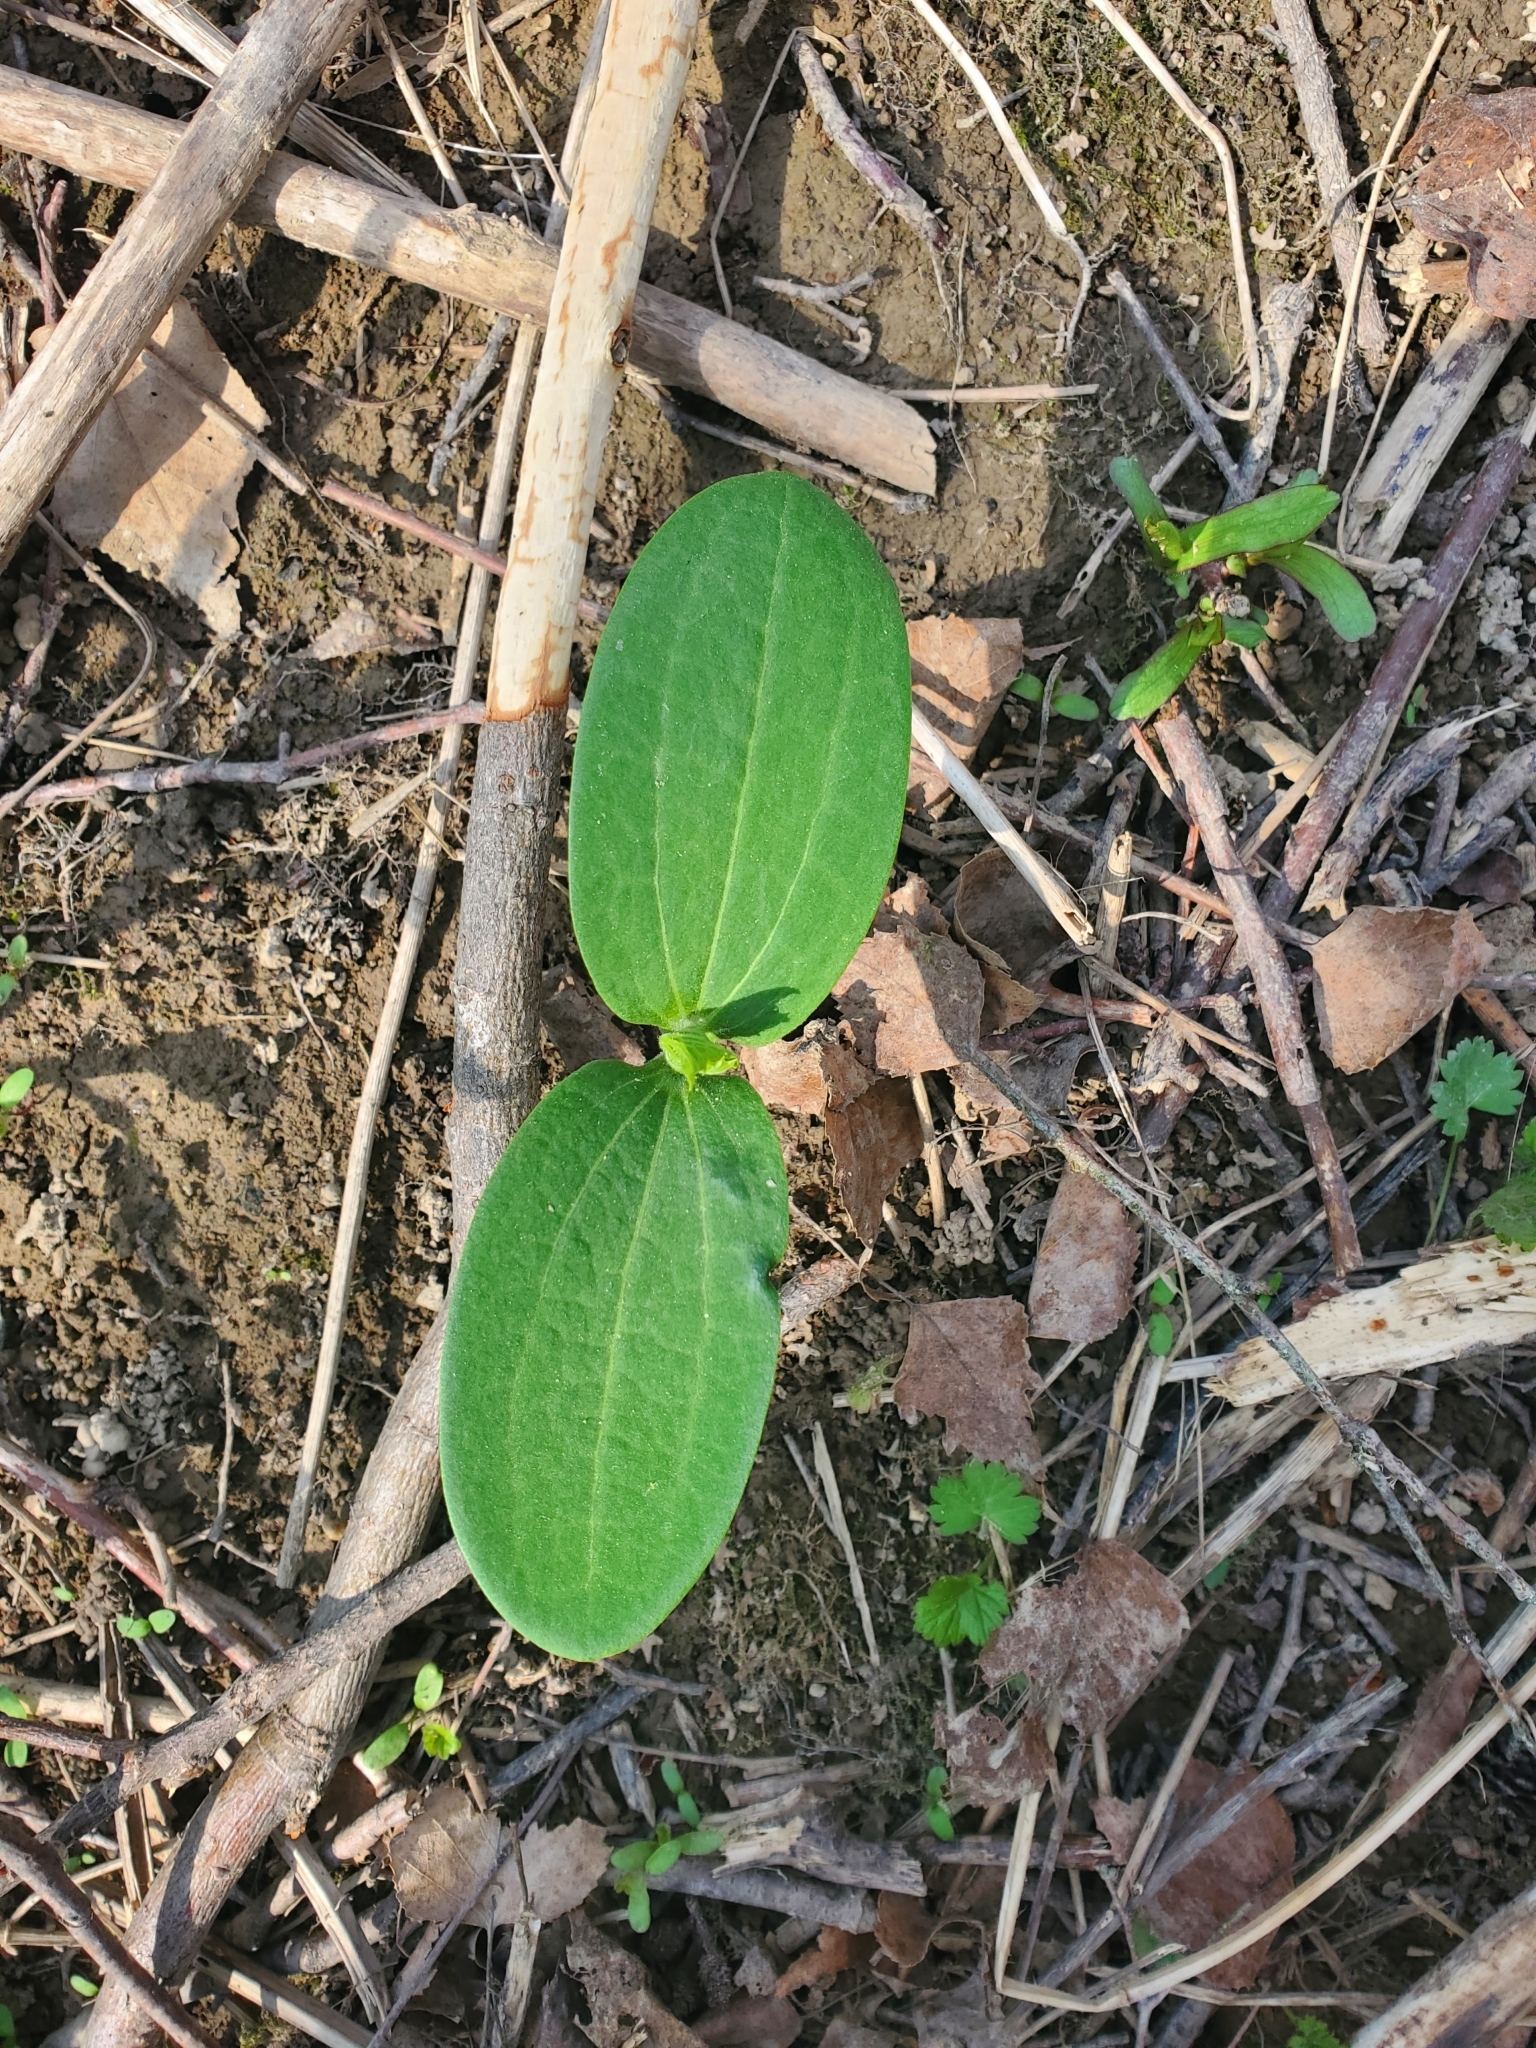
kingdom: Plantae
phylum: Tracheophyta
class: Magnoliopsida
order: Cucurbitales
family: Cucurbitaceae
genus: Echinocystis
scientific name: Echinocystis lobata
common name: Wild cucumber
